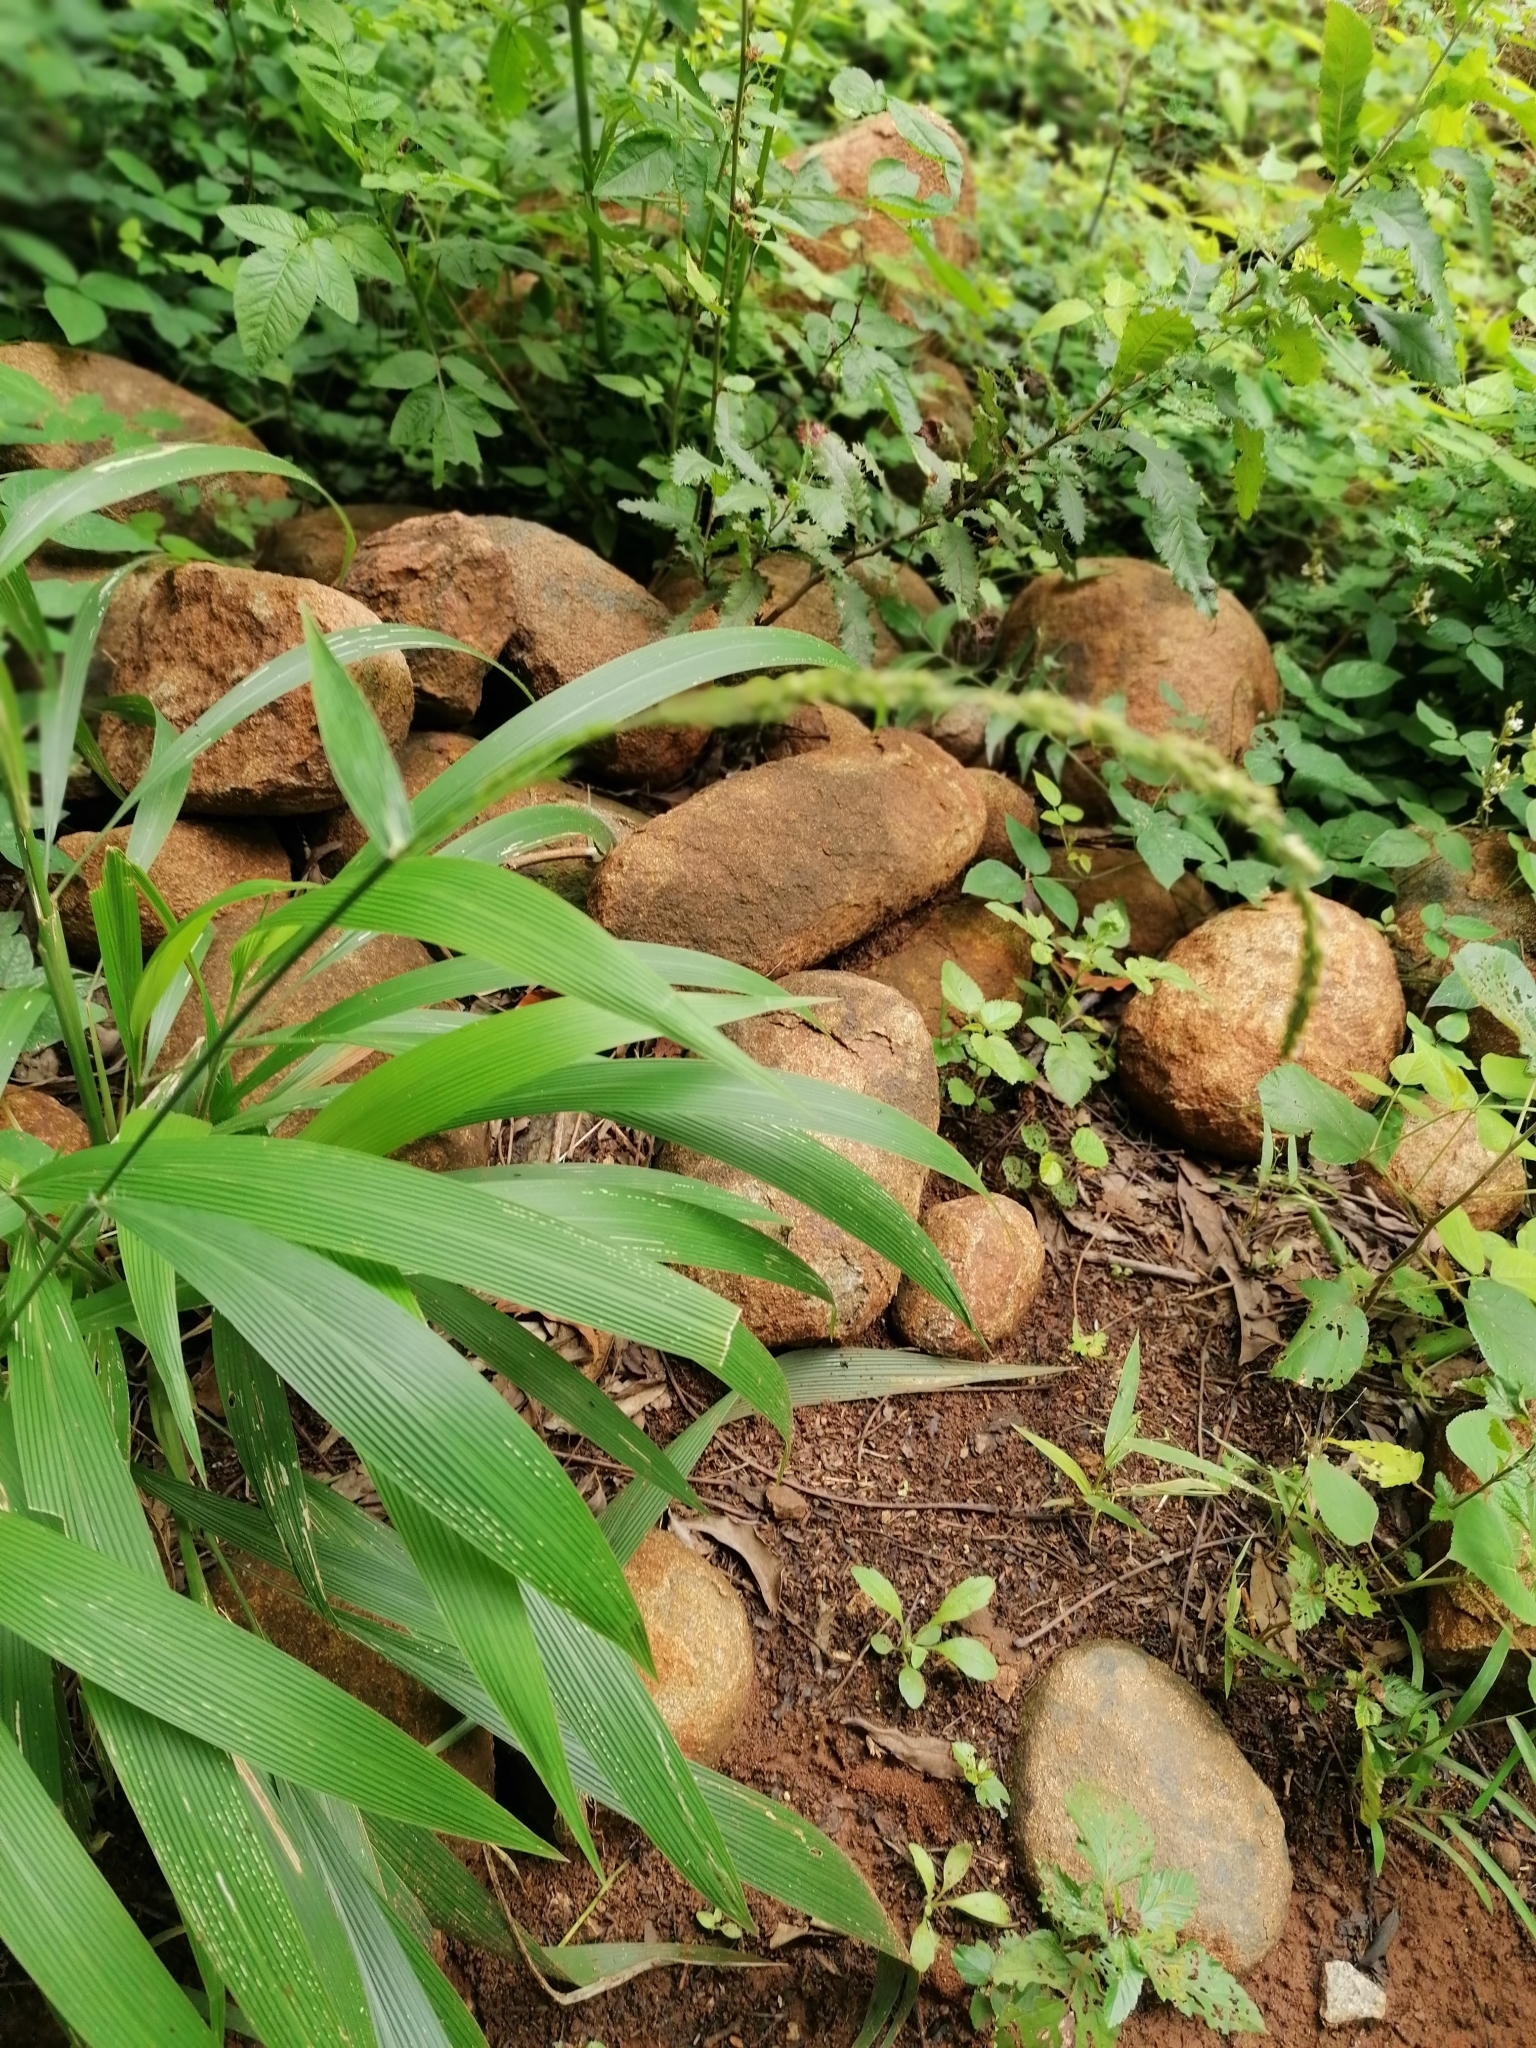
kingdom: Plantae
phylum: Tracheophyta
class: Liliopsida
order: Poales
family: Poaceae
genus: Setaria
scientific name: Setaria megaphylla
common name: Bigleaf bristlegrass
